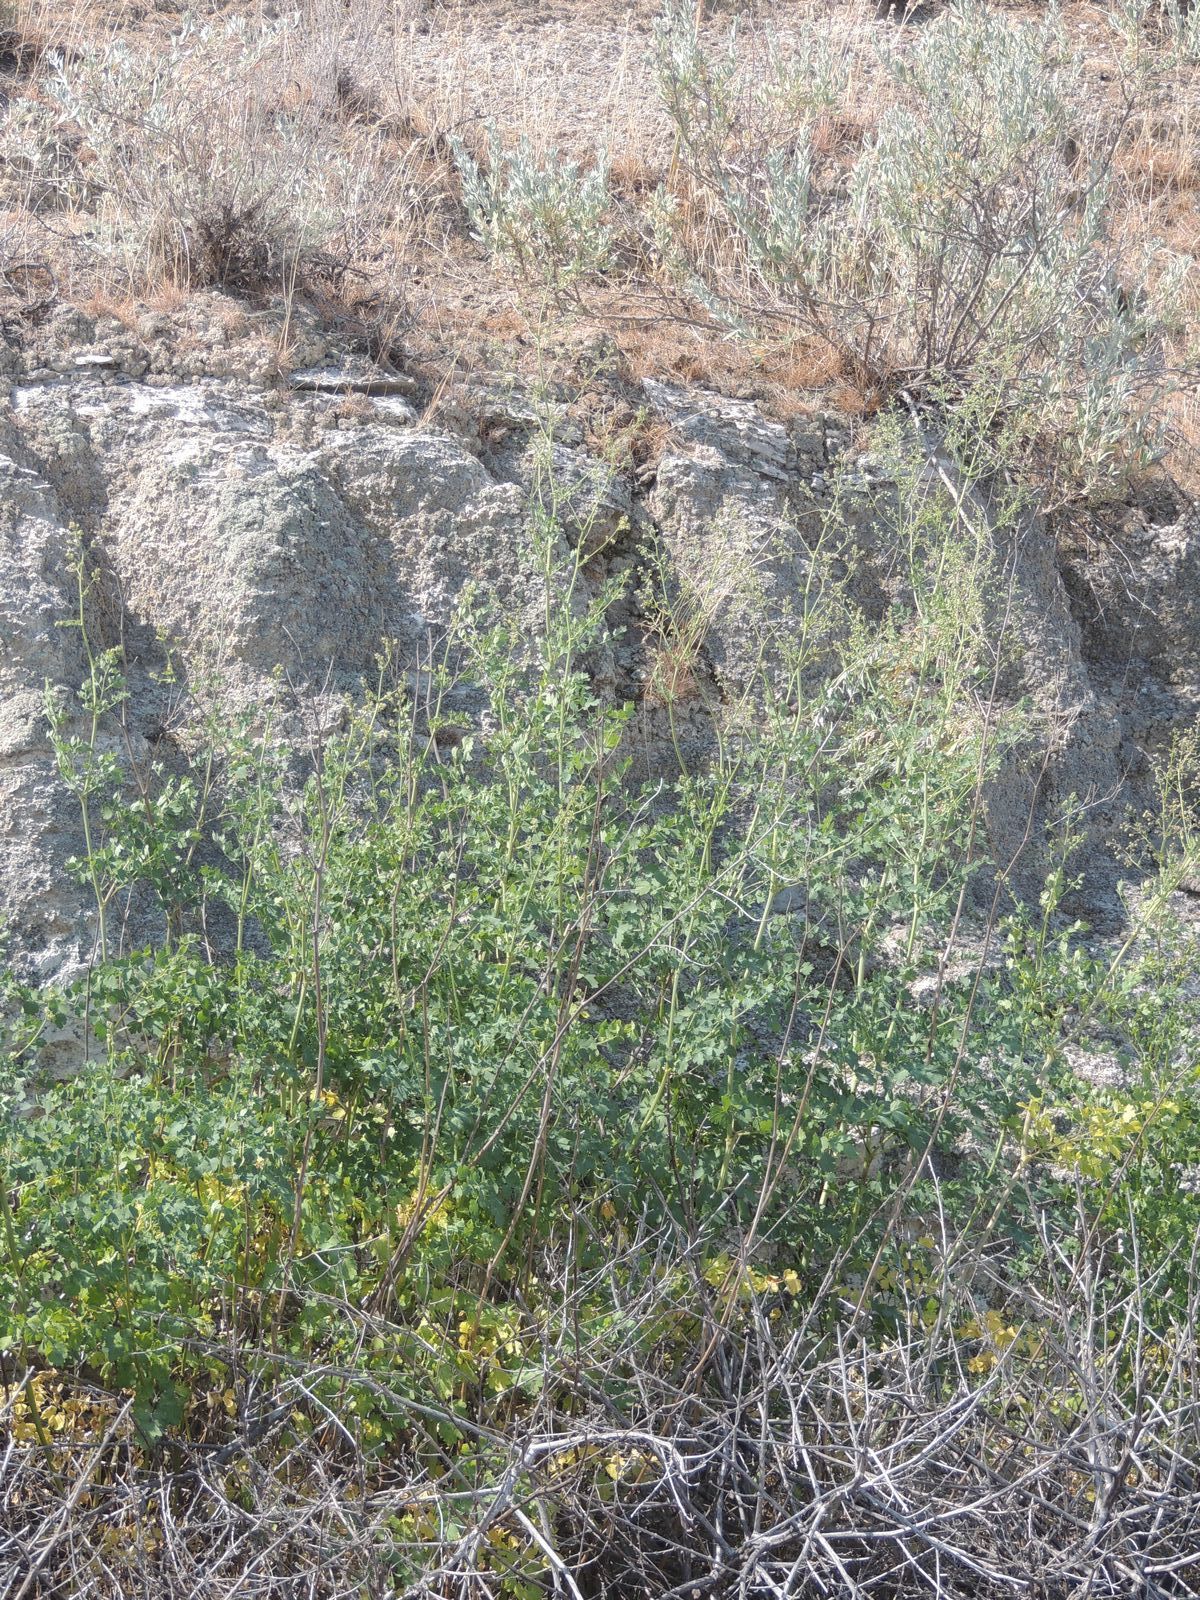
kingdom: Plantae
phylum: Tracheophyta
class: Magnoliopsida
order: Ranunculales
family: Ranunculaceae
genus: Thalictrum
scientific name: Thalictrum minus
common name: Lesser meadow-rue
